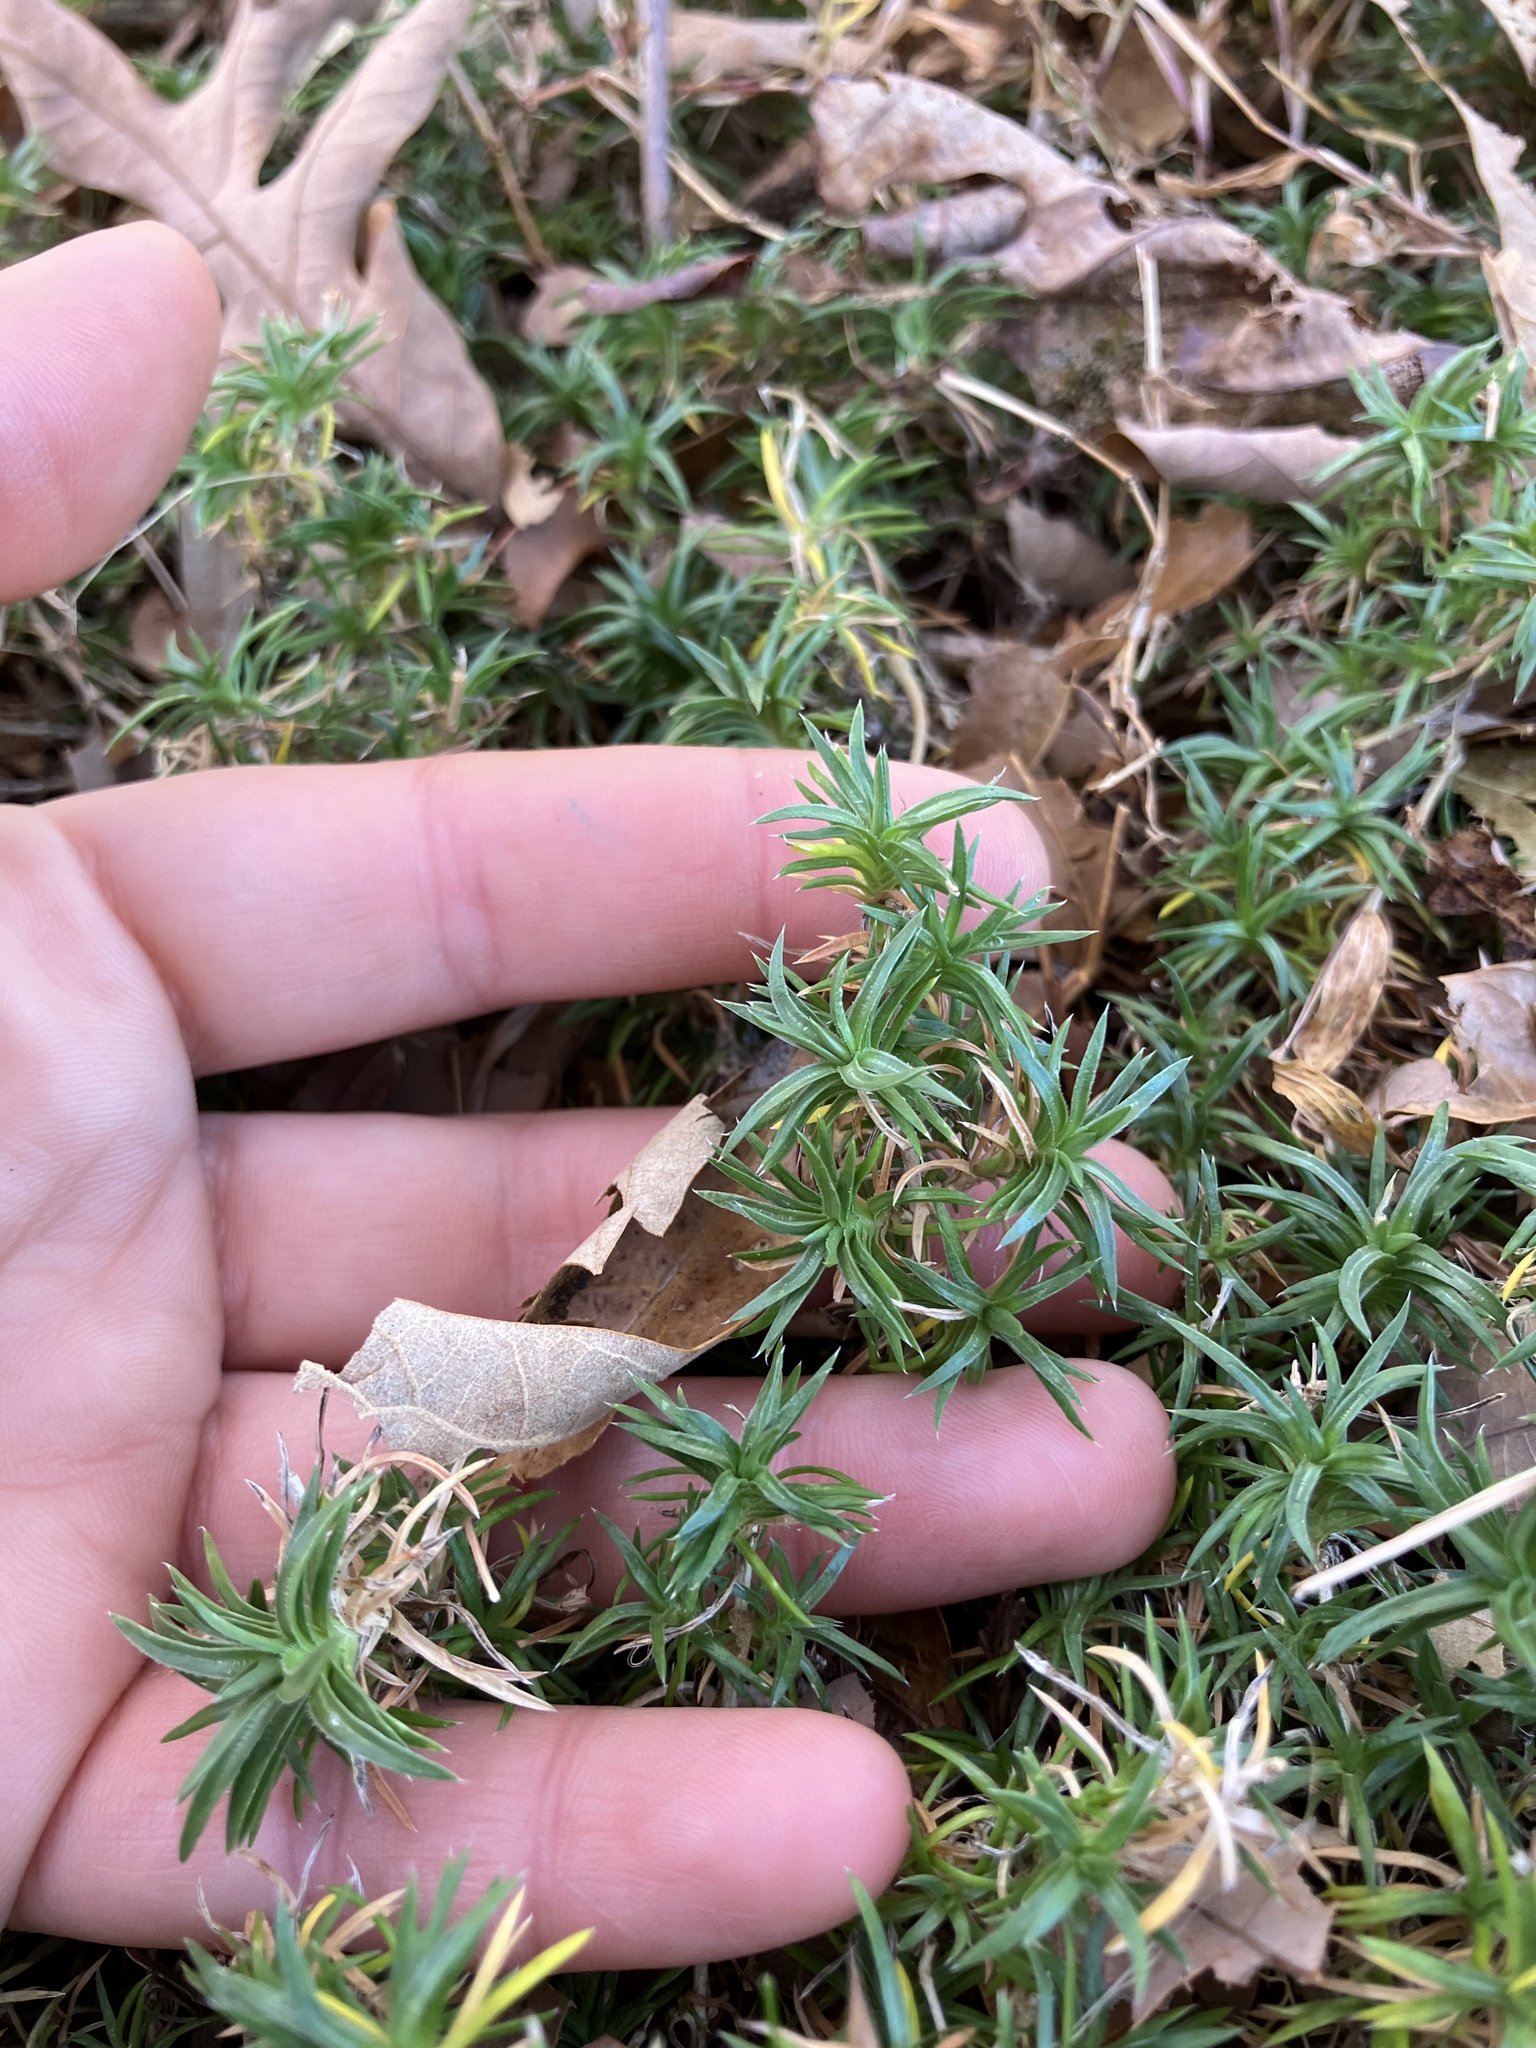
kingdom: Plantae
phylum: Tracheophyta
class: Magnoliopsida
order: Ericales
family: Polemoniaceae
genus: Phlox
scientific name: Phlox subulata
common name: Moss phlox
